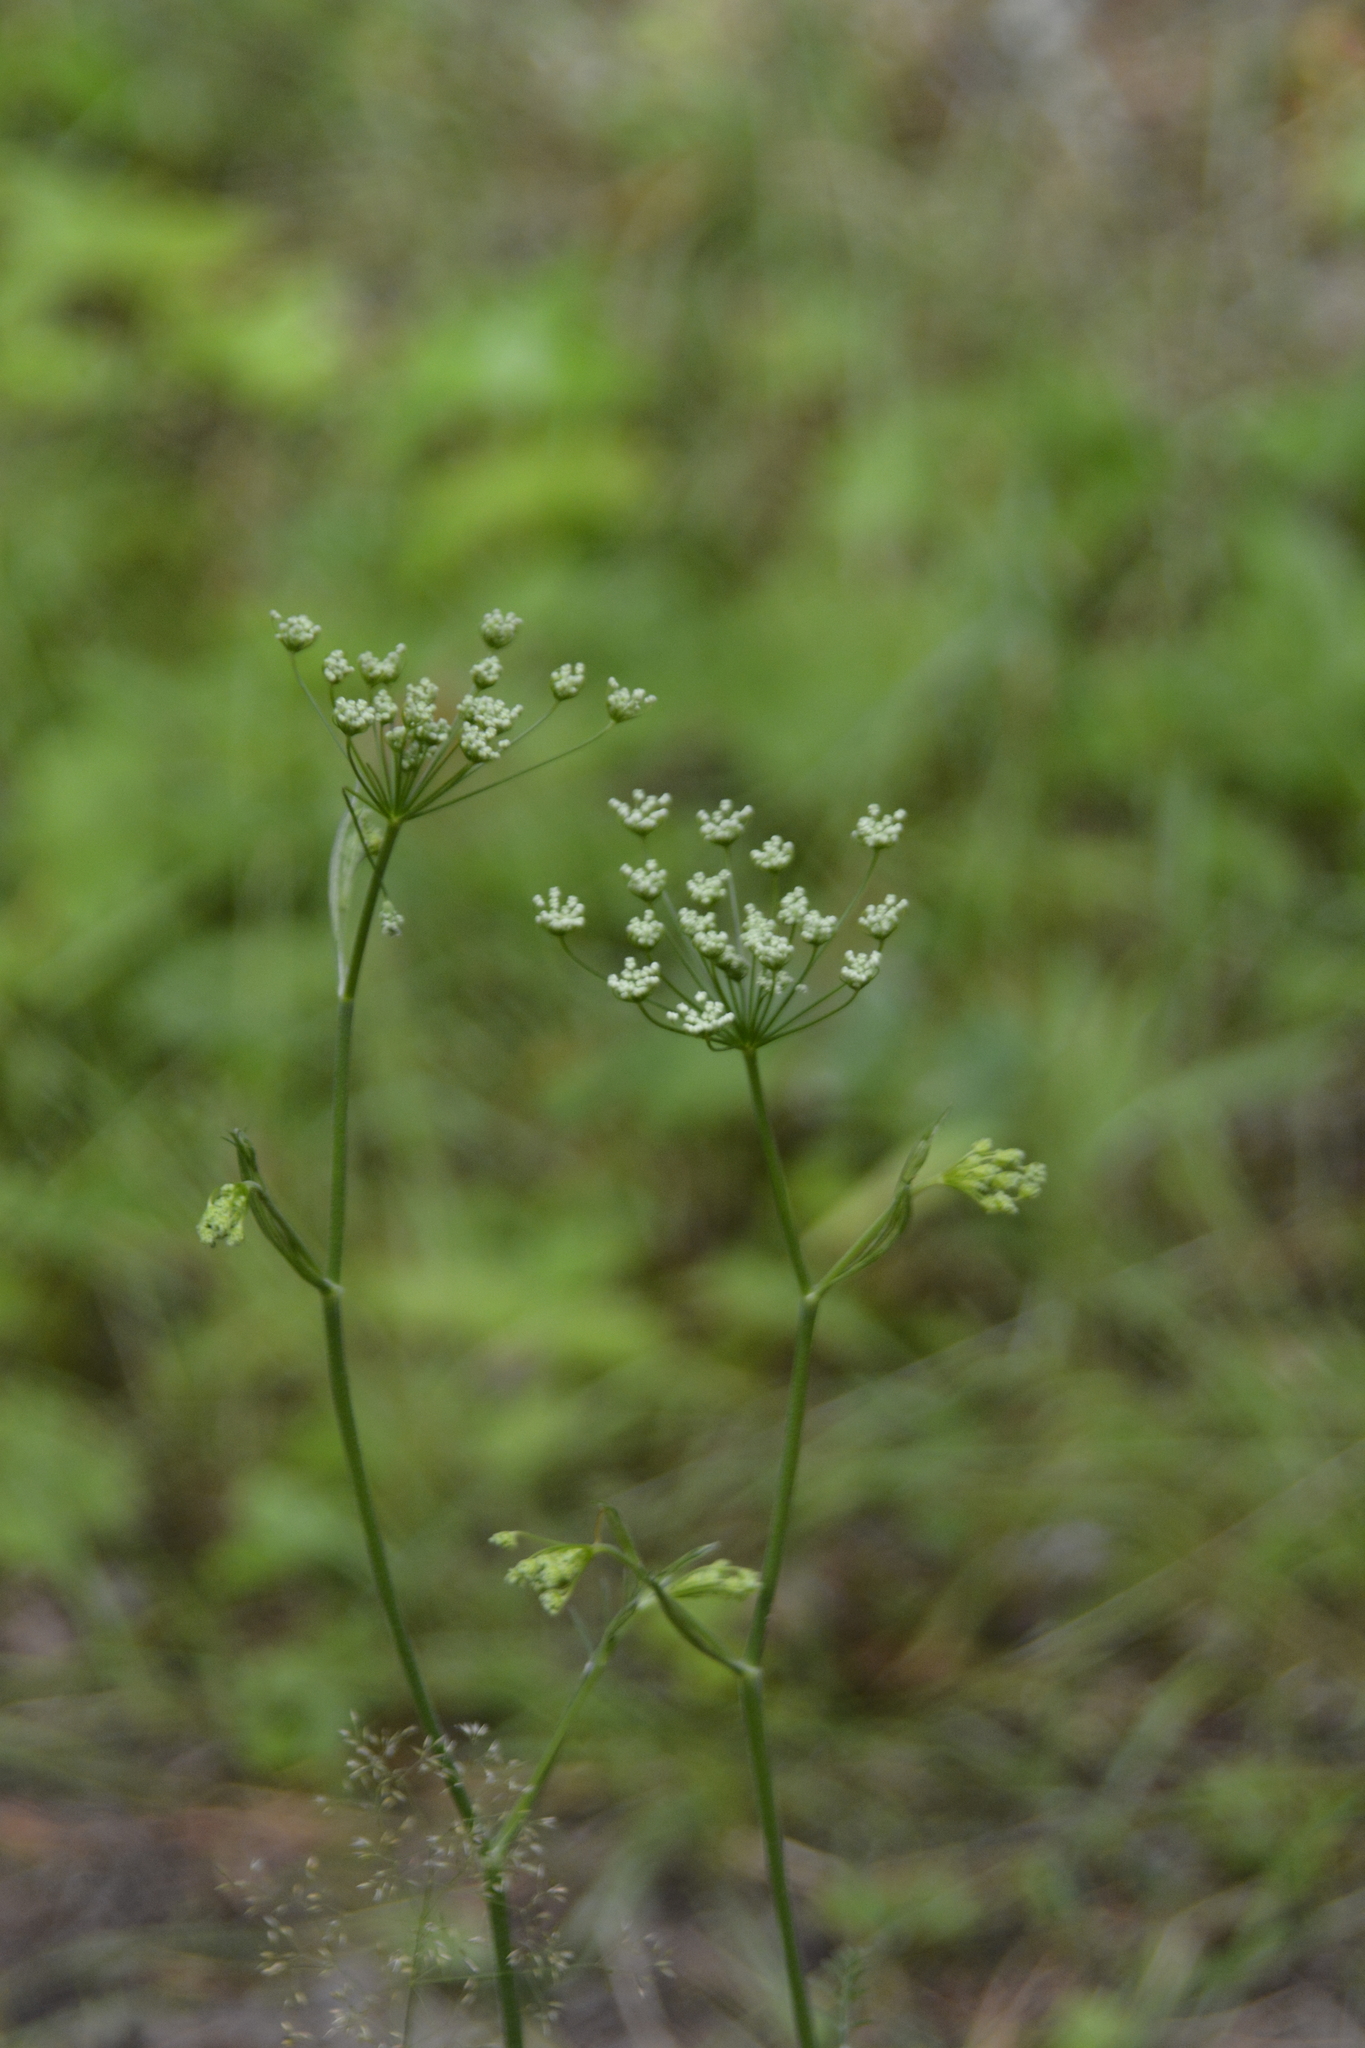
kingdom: Plantae
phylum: Tracheophyta
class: Magnoliopsida
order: Apiales
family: Apiaceae
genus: Pimpinella
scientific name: Pimpinella saxifraga
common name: Burnet-saxifrage
